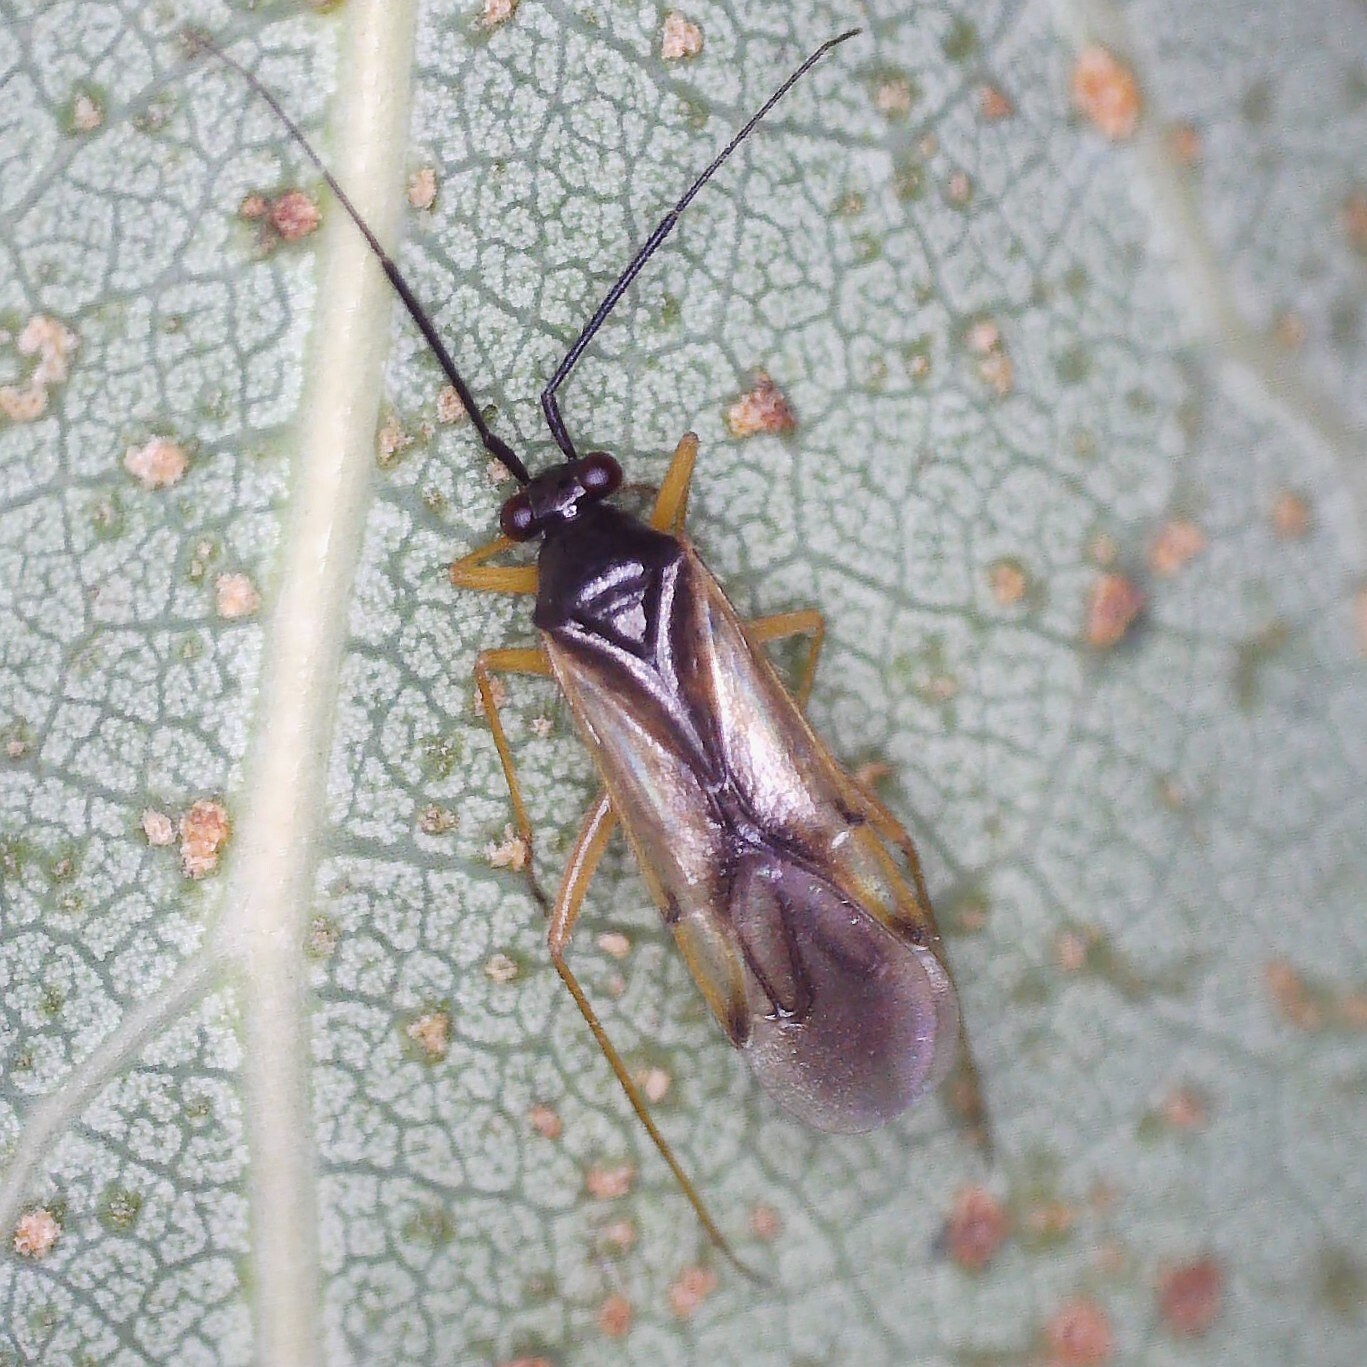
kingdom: Animalia
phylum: Arthropoda
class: Insecta
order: Hemiptera
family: Miridae
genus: Mecomma
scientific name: Mecomma ambulans
